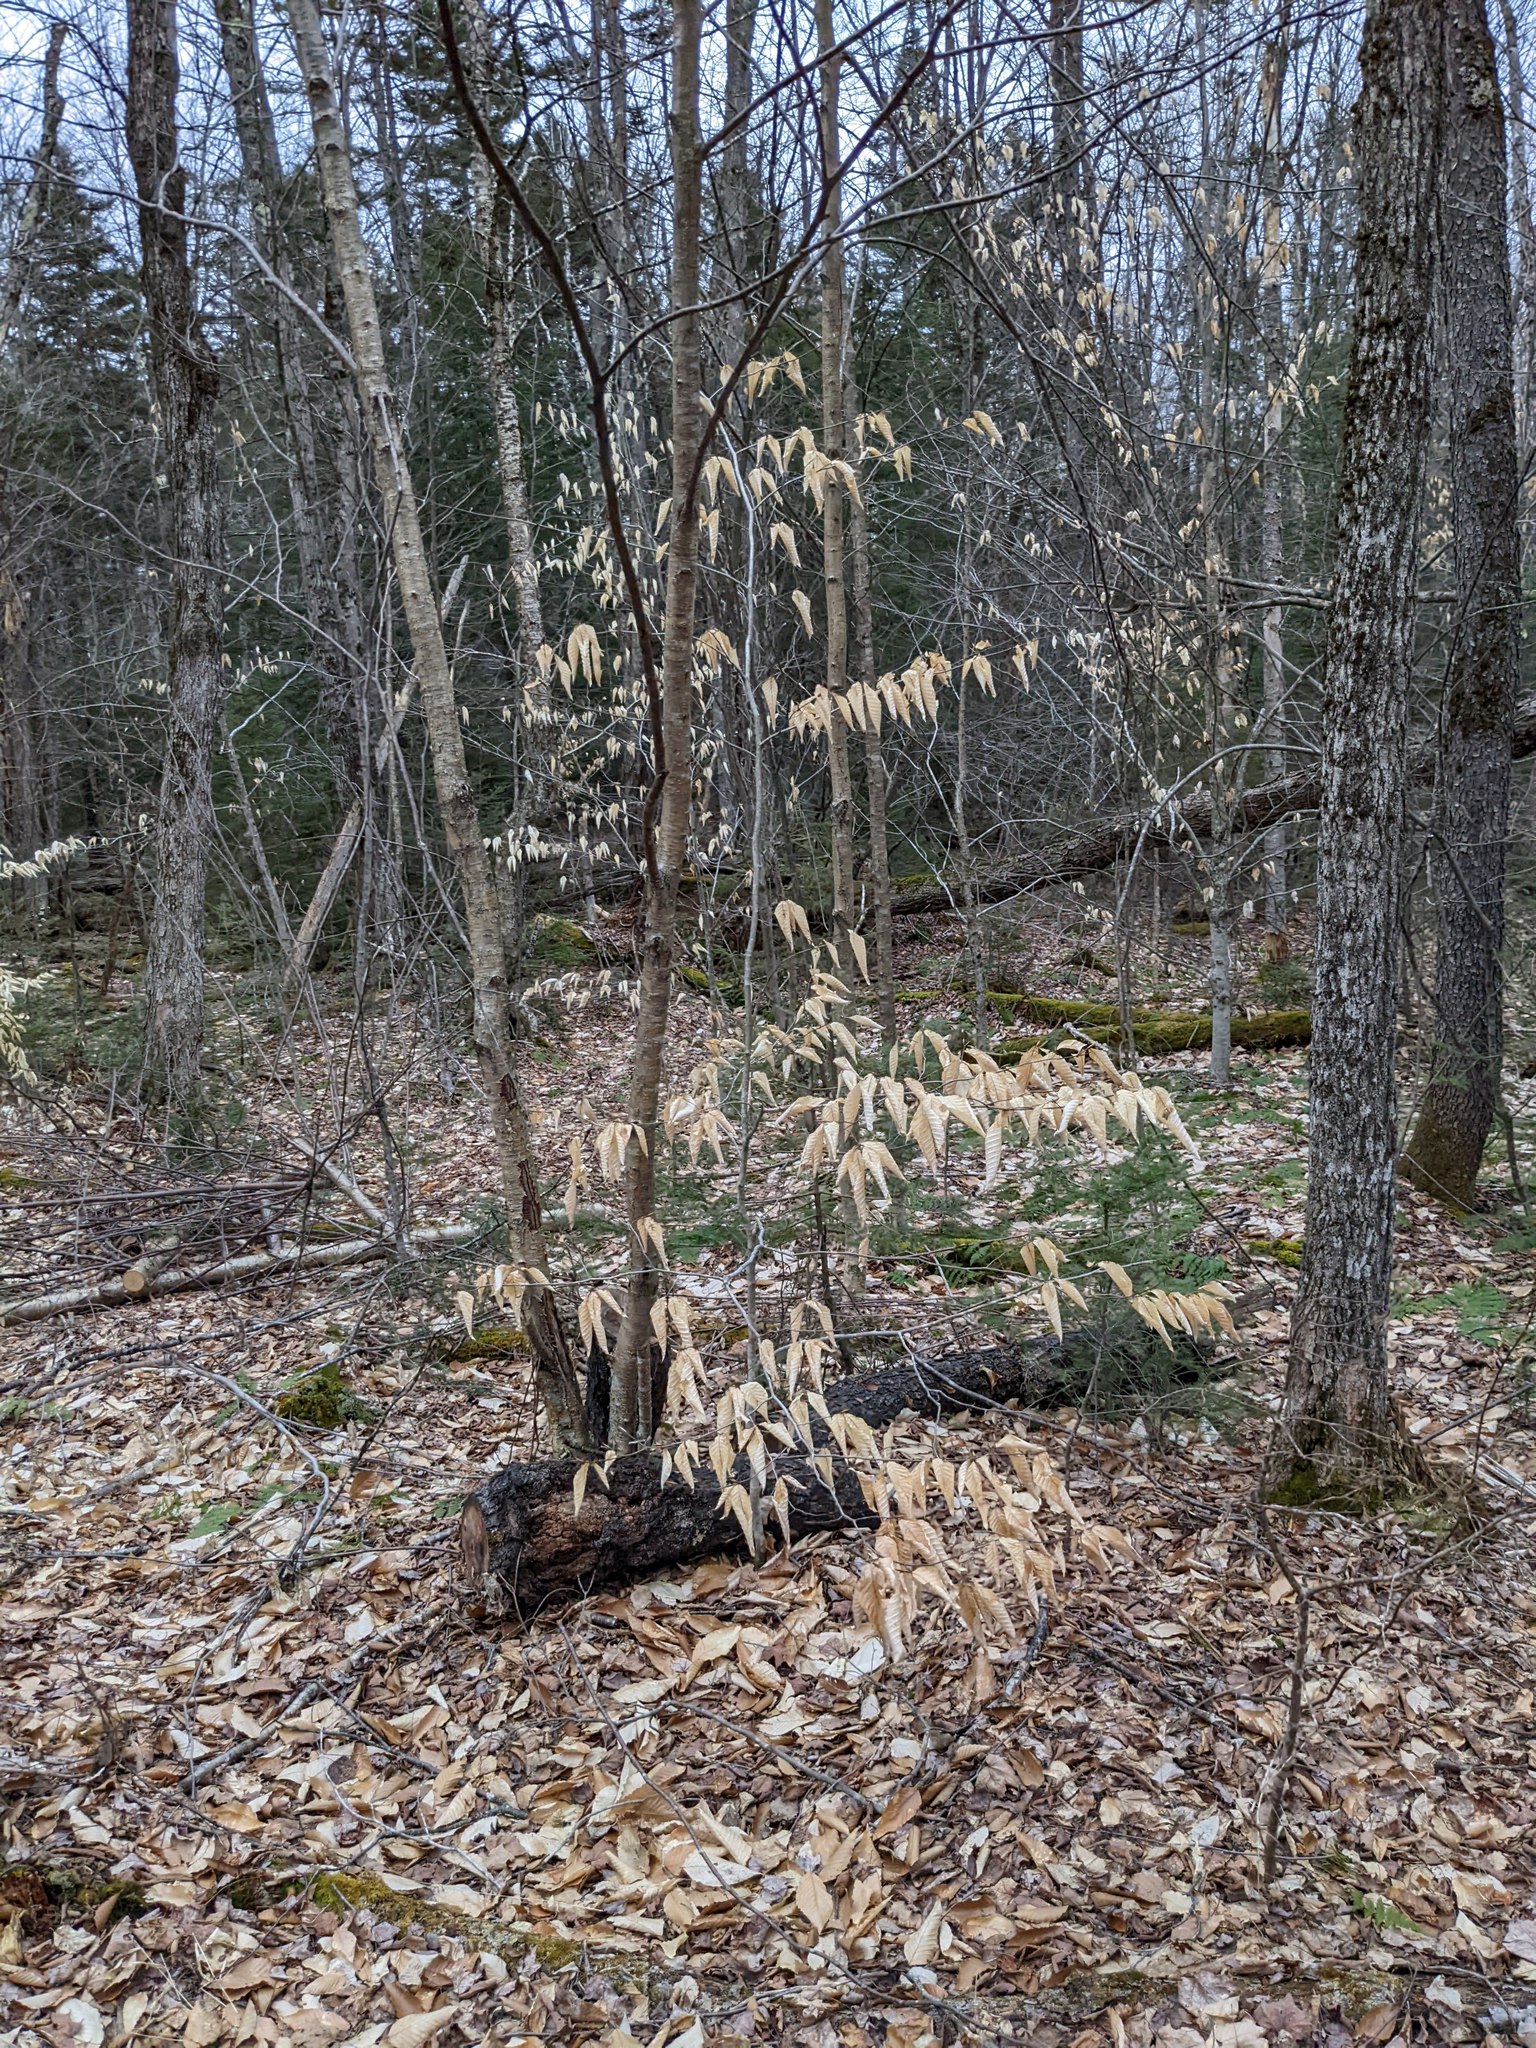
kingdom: Plantae
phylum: Tracheophyta
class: Magnoliopsida
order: Fagales
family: Fagaceae
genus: Fagus
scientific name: Fagus grandifolia
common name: American beech
